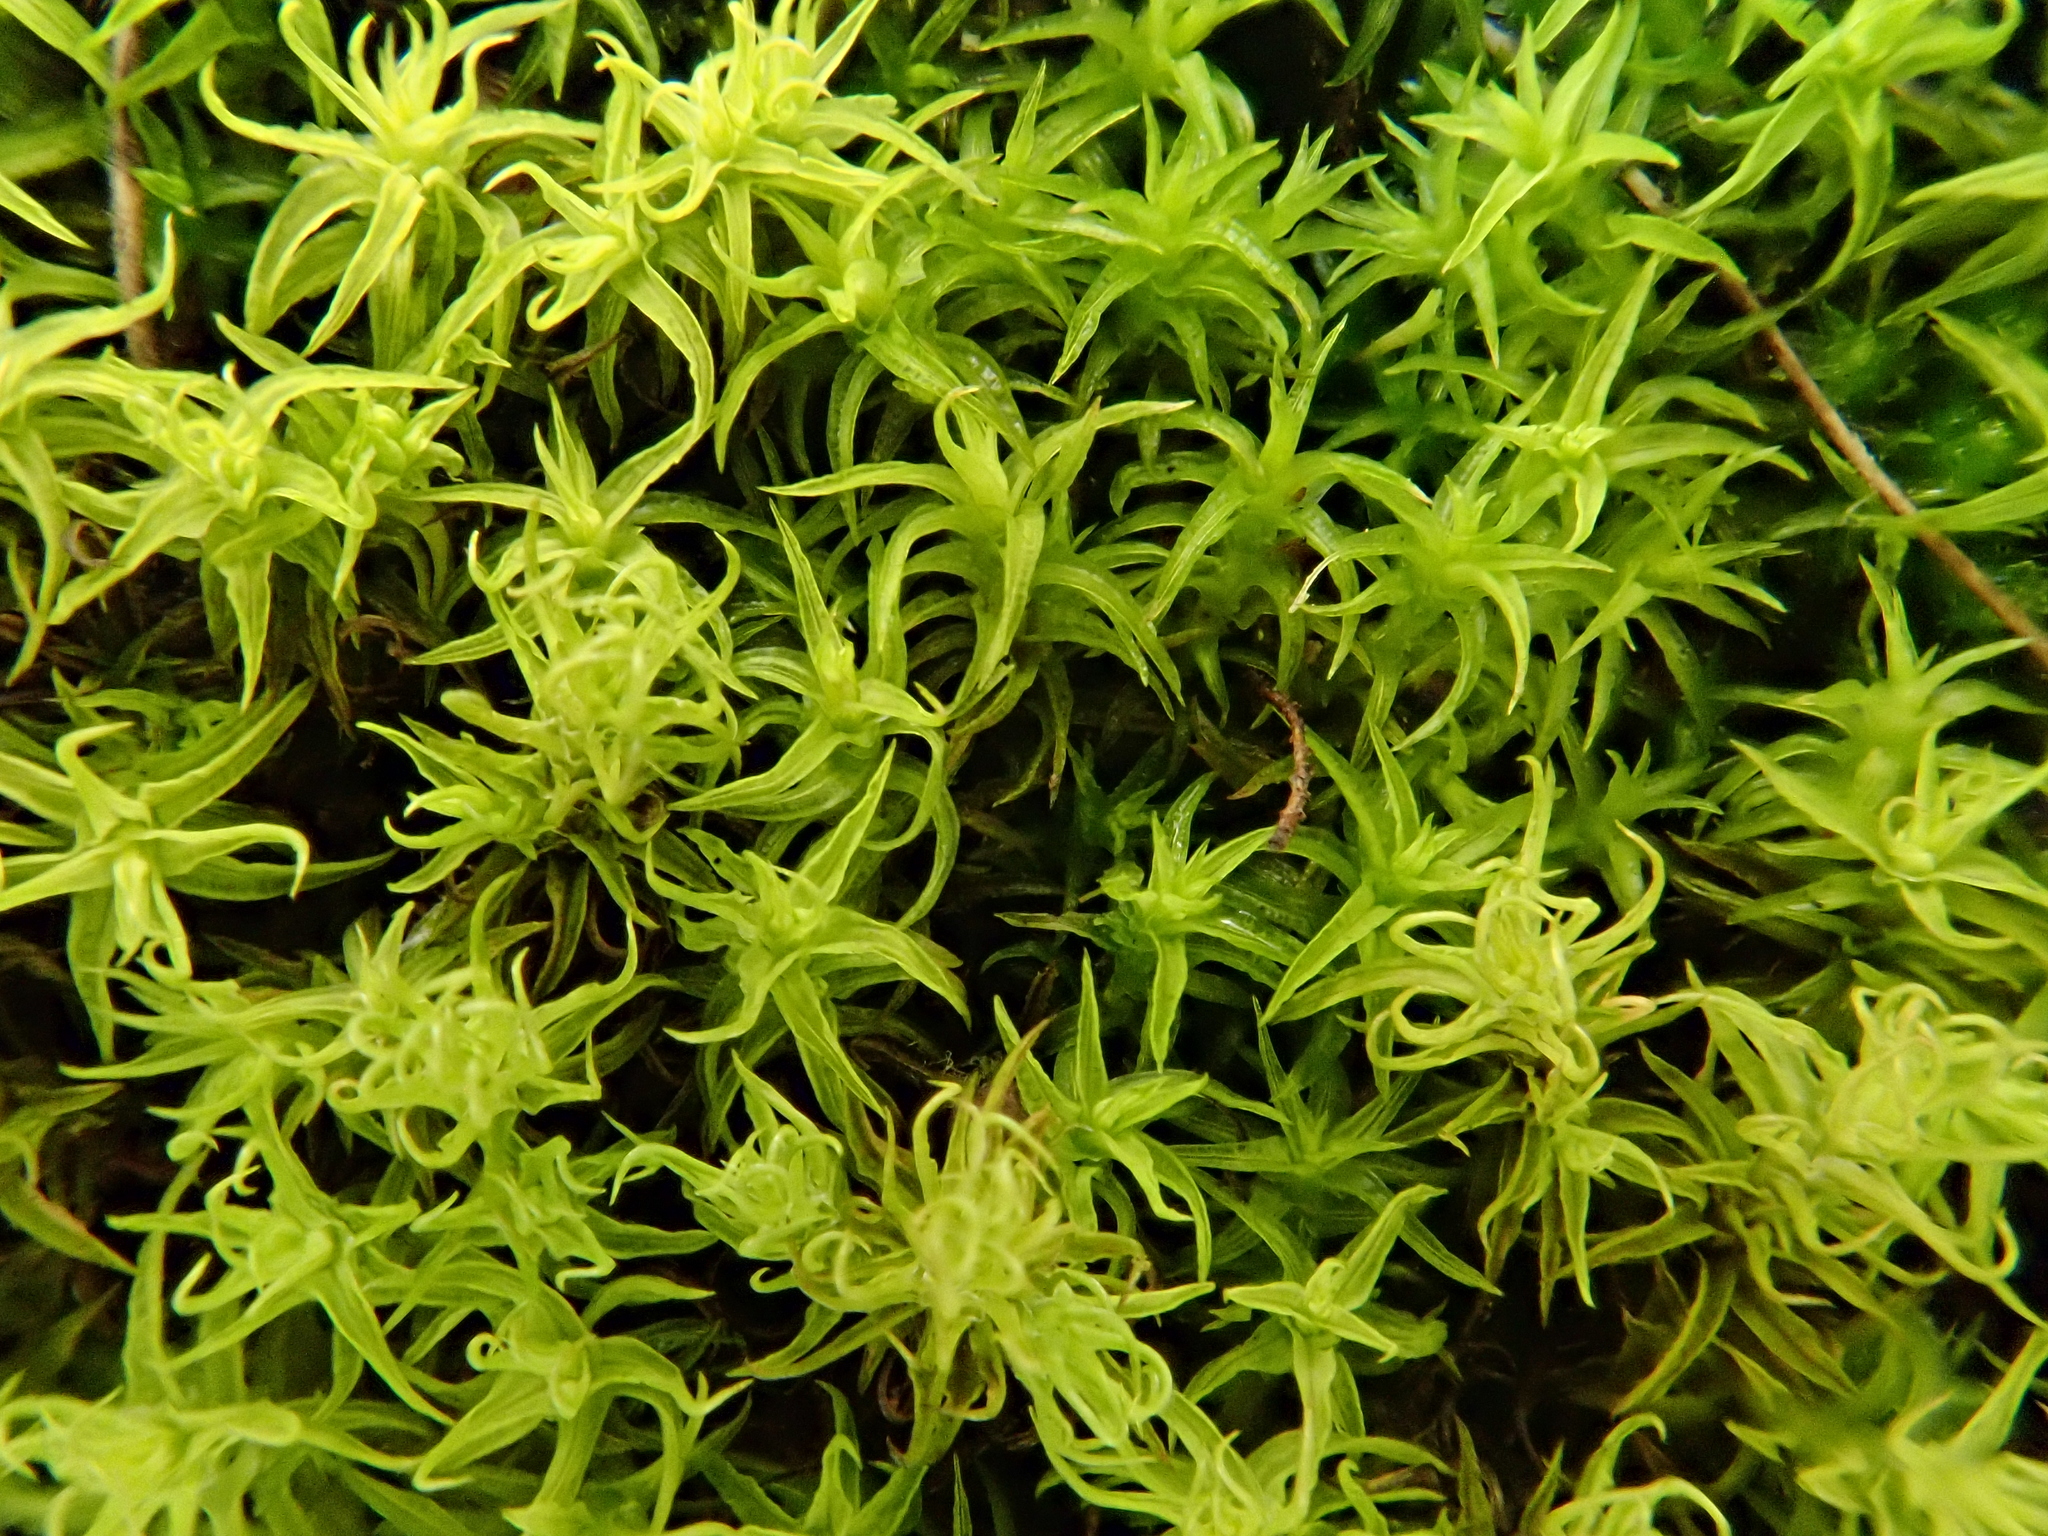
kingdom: Plantae
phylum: Bryophyta
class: Bryopsida
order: Pottiales
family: Pottiaceae
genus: Pleurochaete
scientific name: Pleurochaete squarrosa
